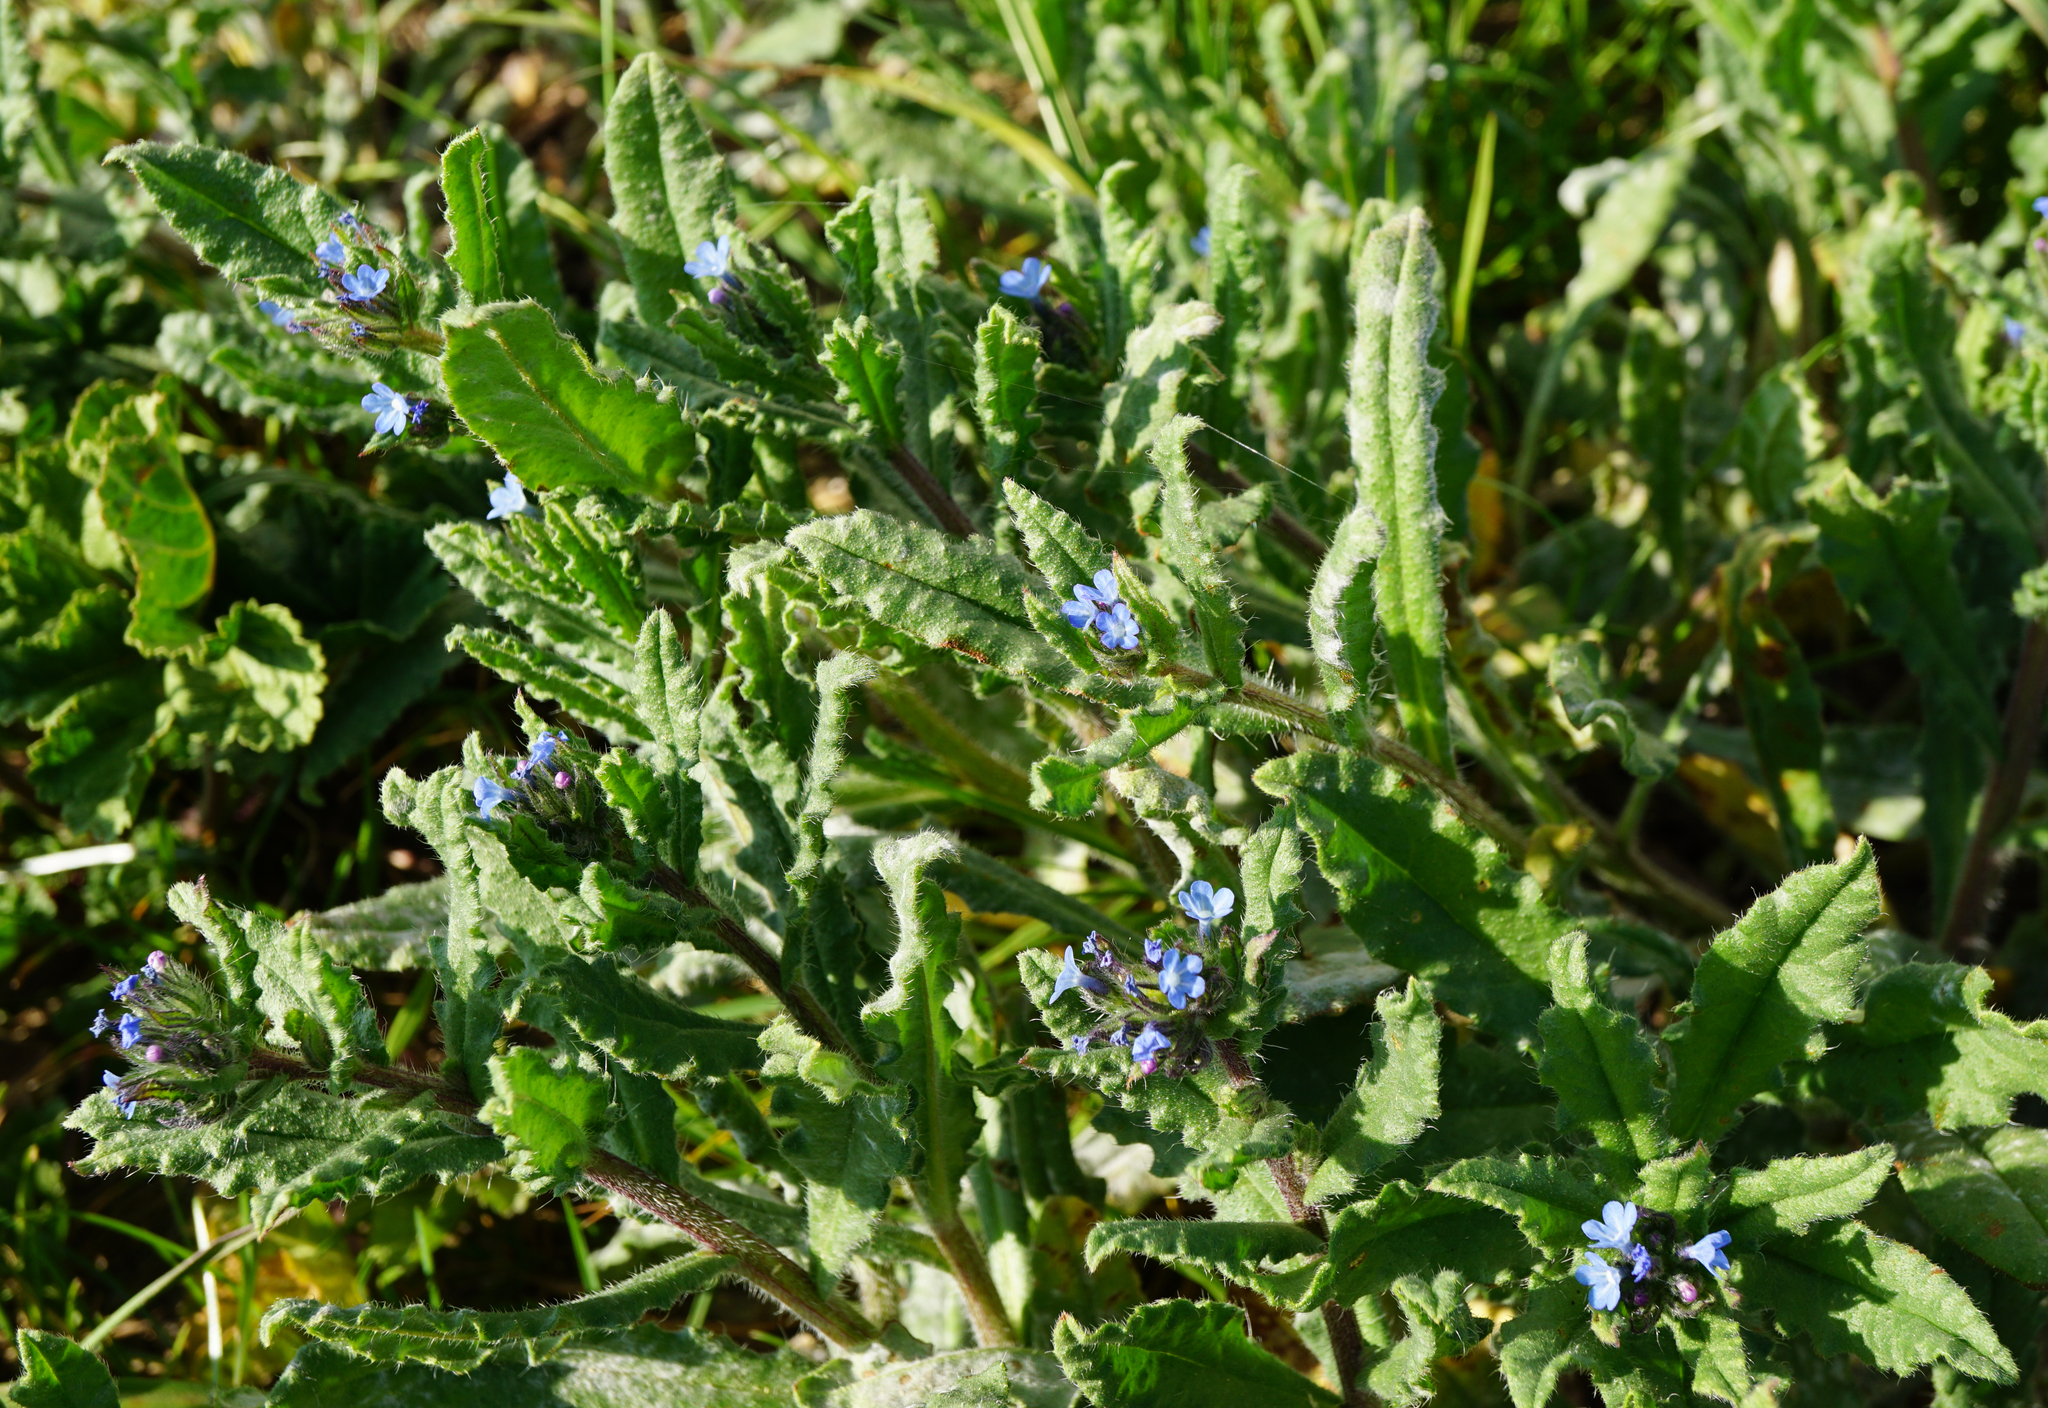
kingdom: Plantae
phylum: Tracheophyta
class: Magnoliopsida
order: Boraginales
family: Boraginaceae
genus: Lycopsis
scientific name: Lycopsis arvensis
